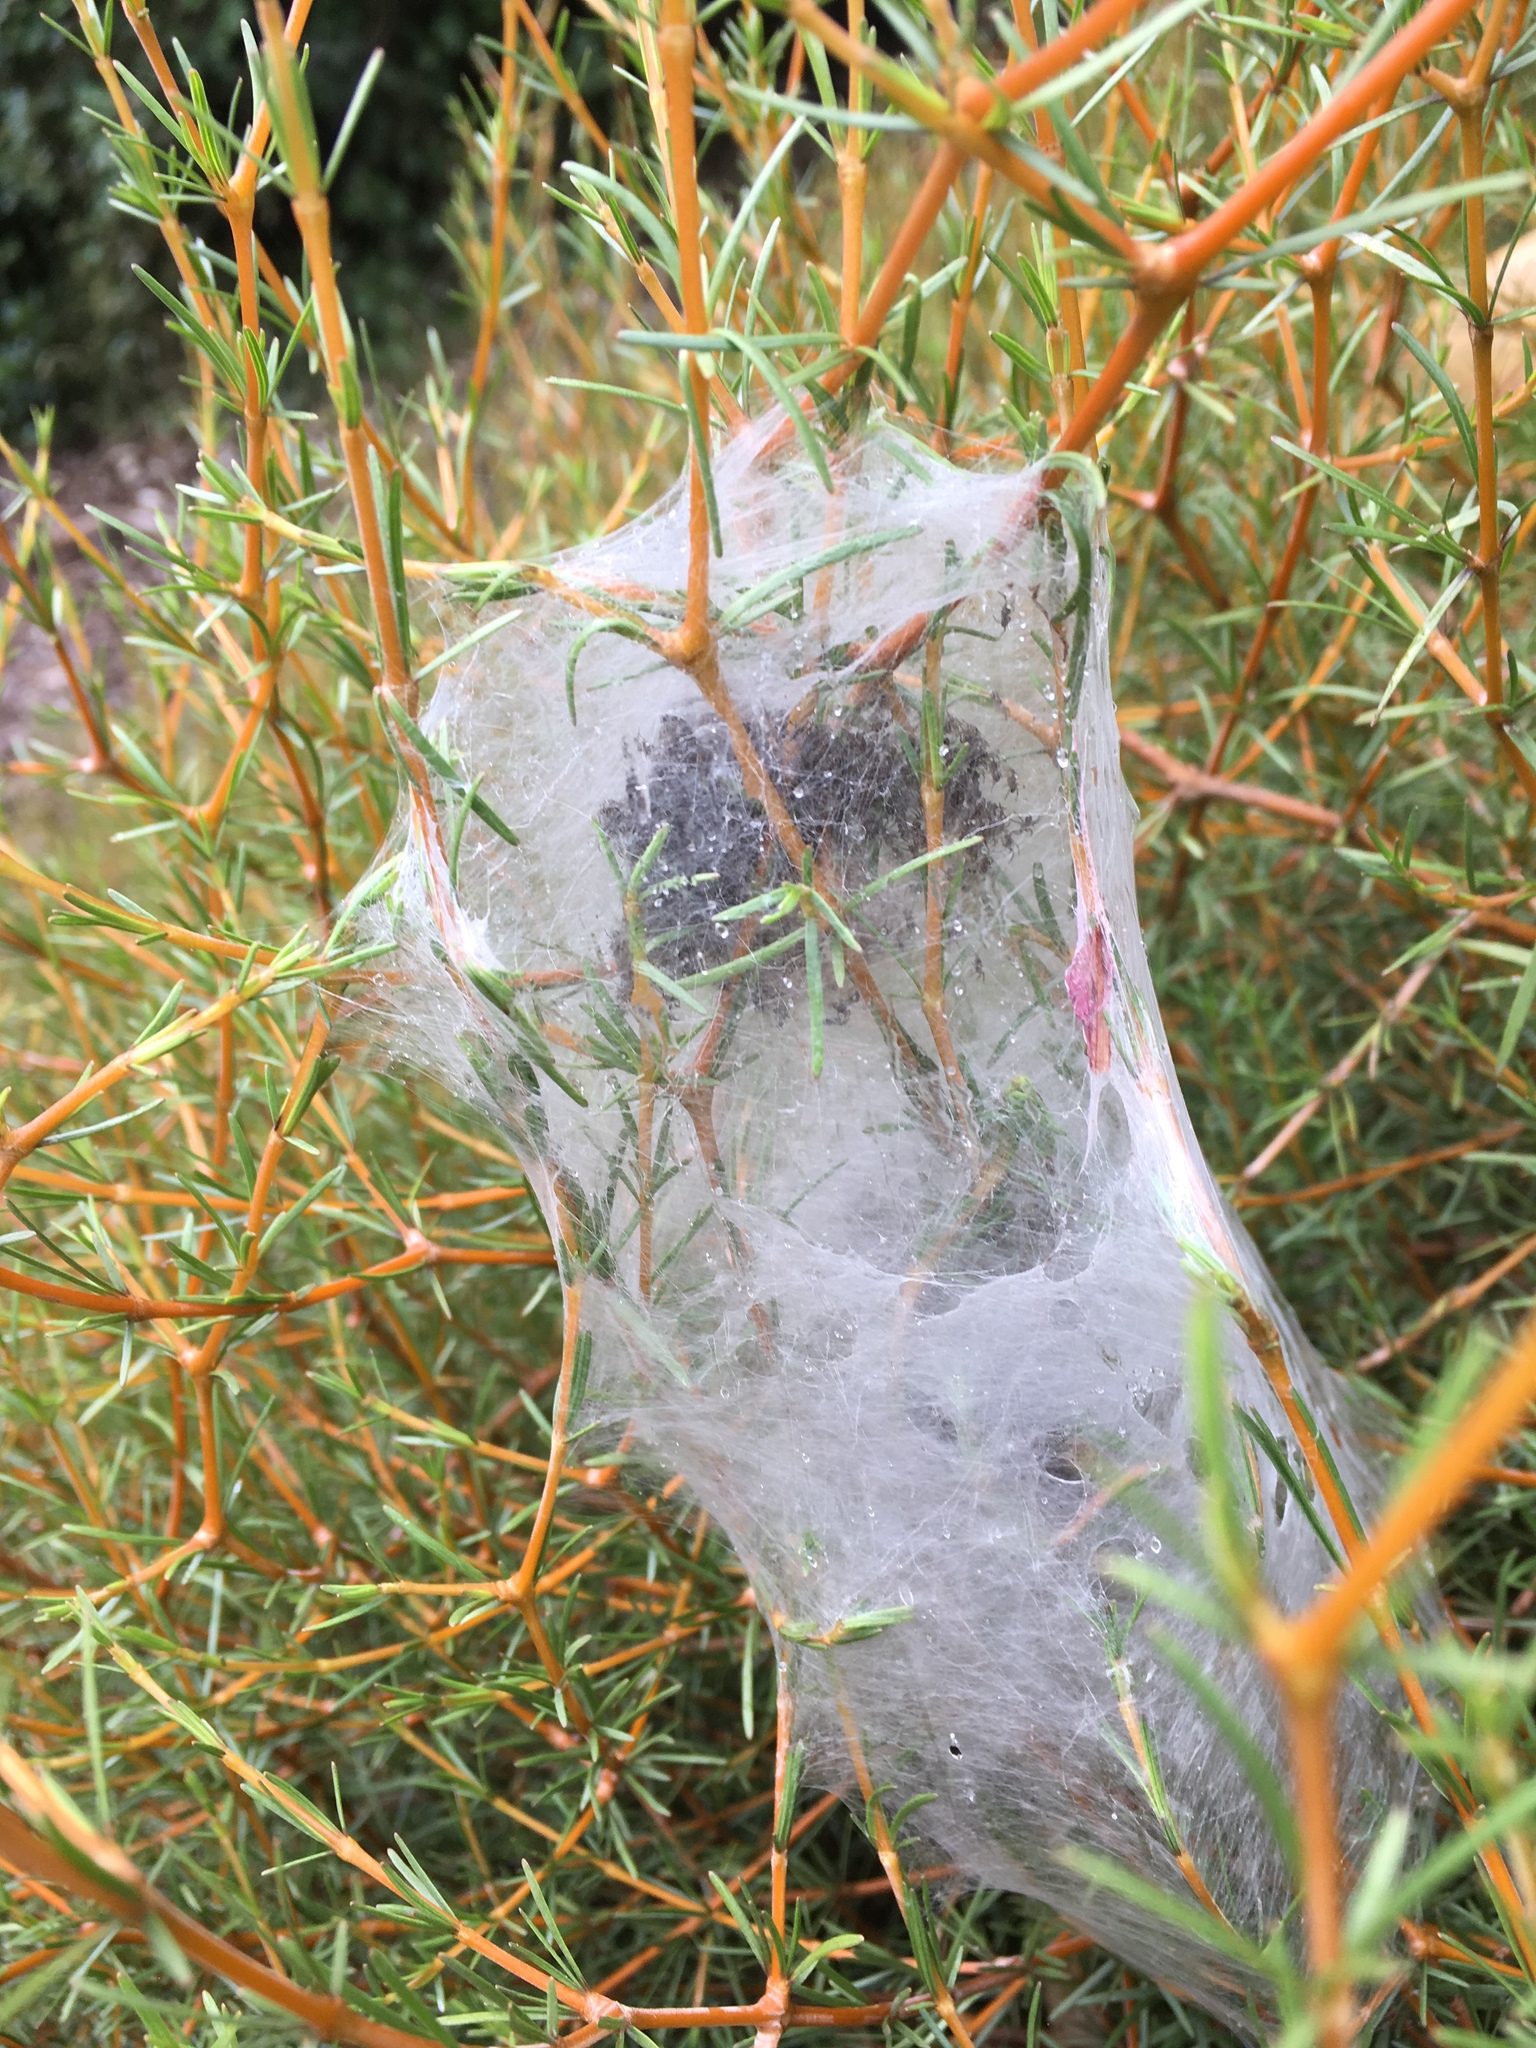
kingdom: Animalia
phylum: Arthropoda
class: Arachnida
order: Araneae
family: Pisauridae
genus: Dolomedes
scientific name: Dolomedes minor
